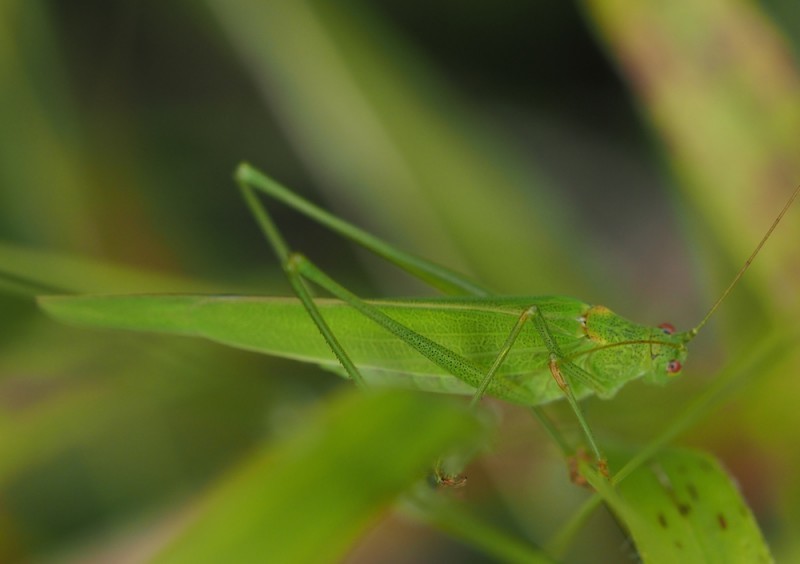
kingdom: Animalia
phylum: Arthropoda
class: Insecta
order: Orthoptera
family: Tettigoniidae
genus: Phaneroptera
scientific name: Phaneroptera falcata
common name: Sickle-bearing bush-cricket
